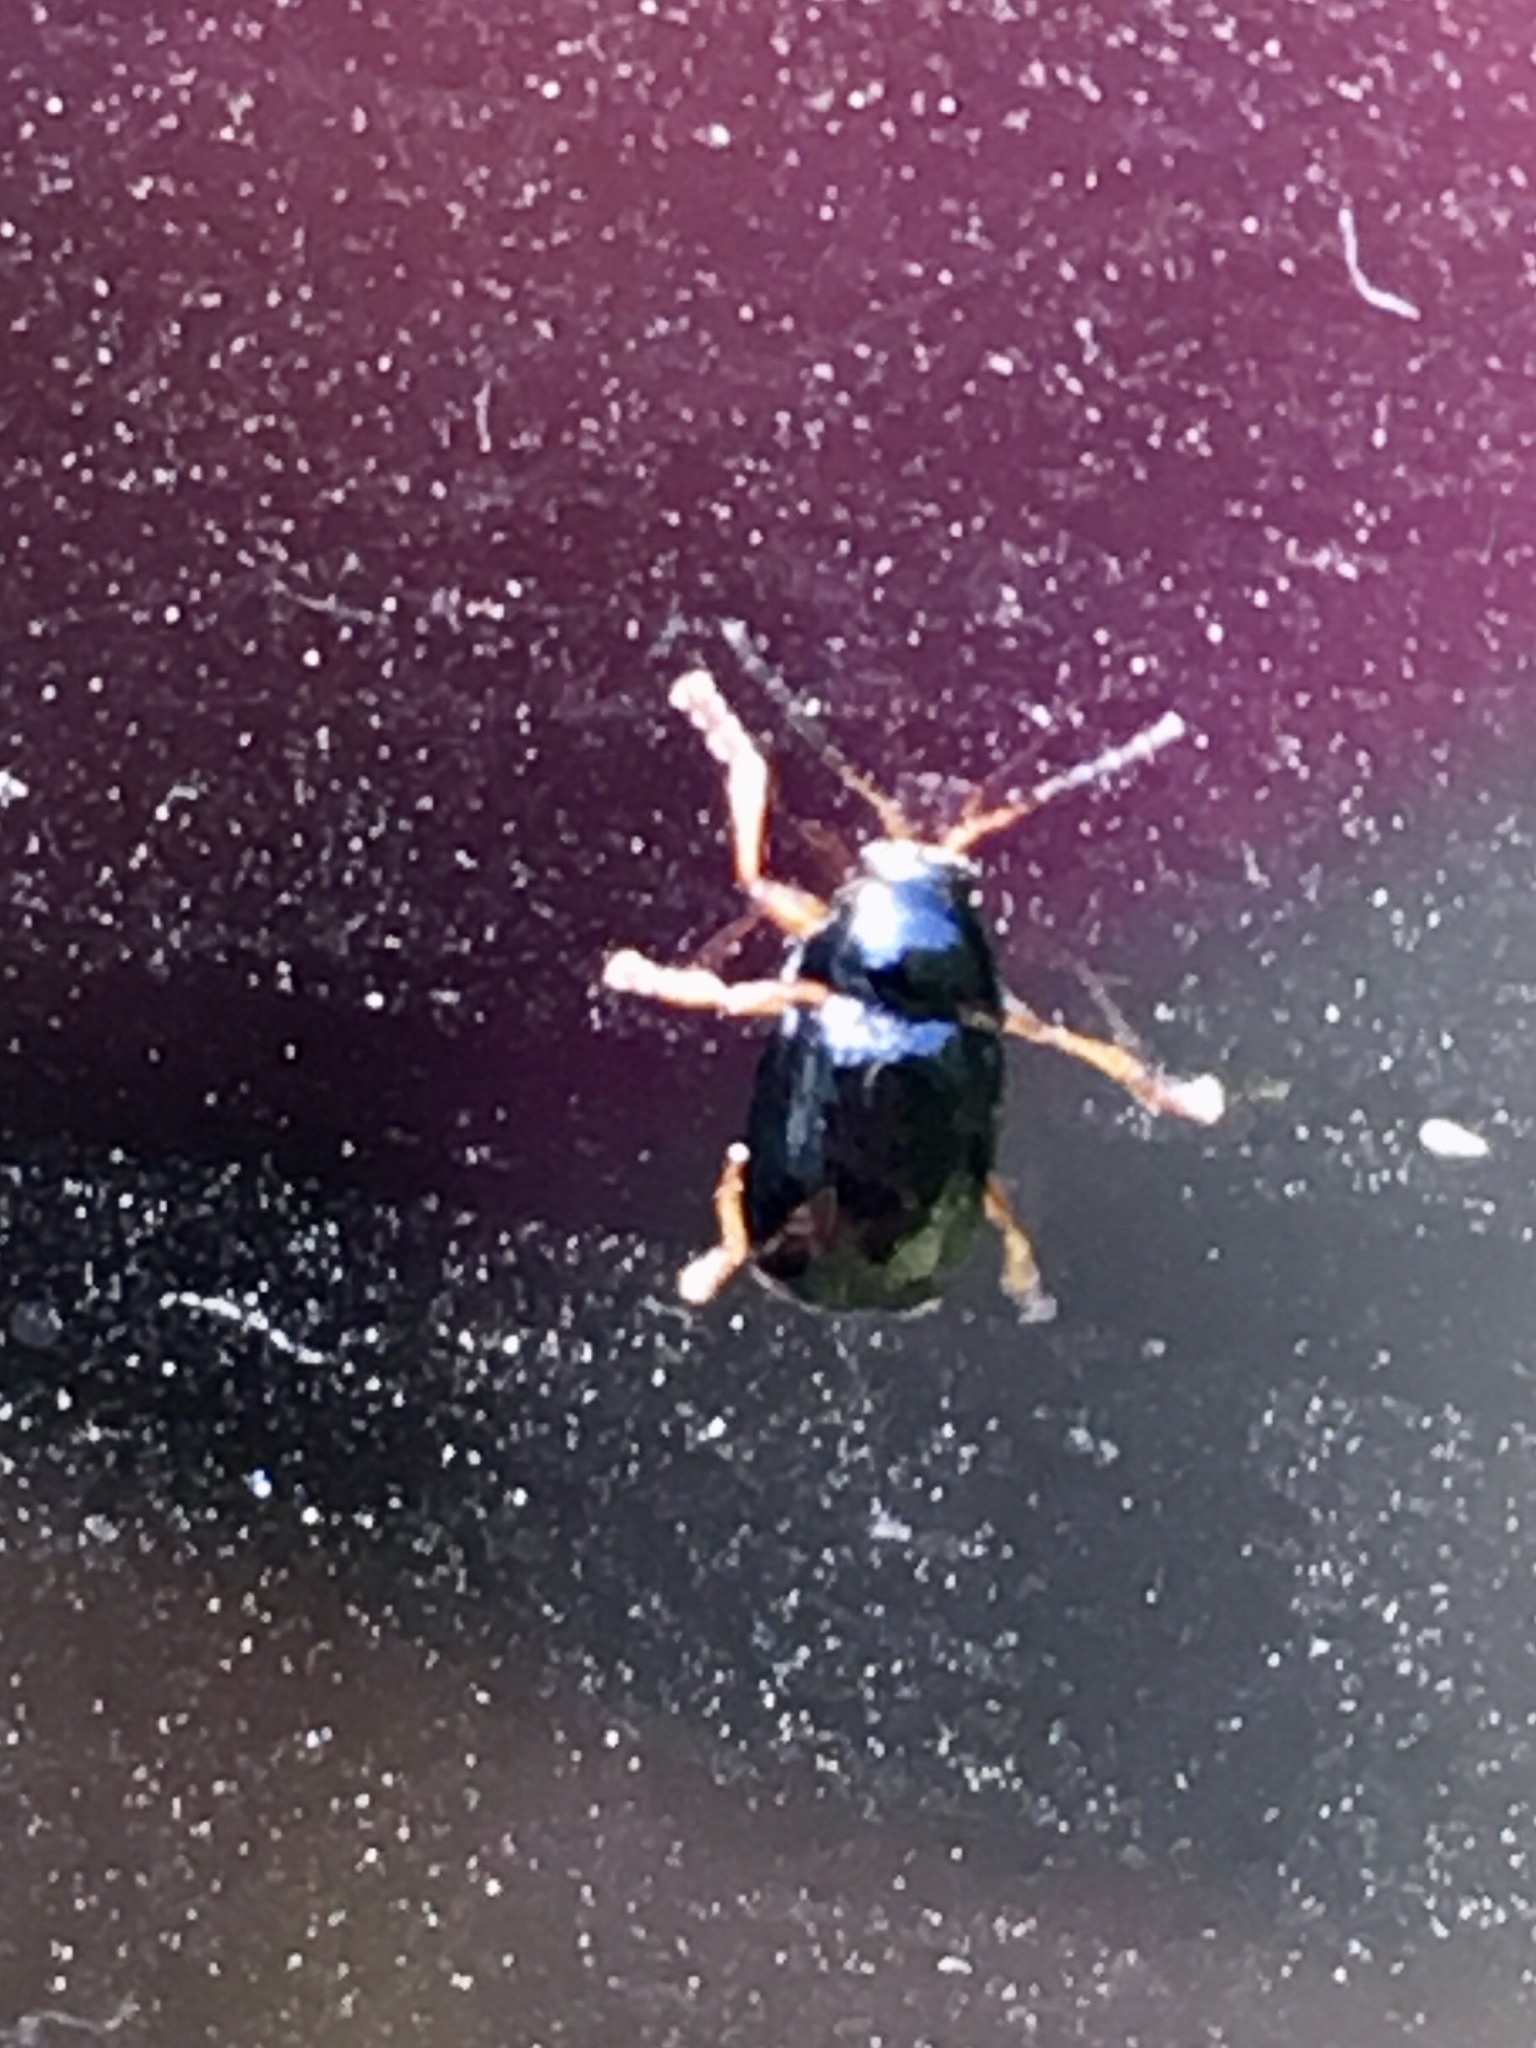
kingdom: Animalia
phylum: Arthropoda
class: Insecta
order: Coleoptera
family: Chrysomelidae
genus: Cryptocephalus
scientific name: Cryptocephalus
